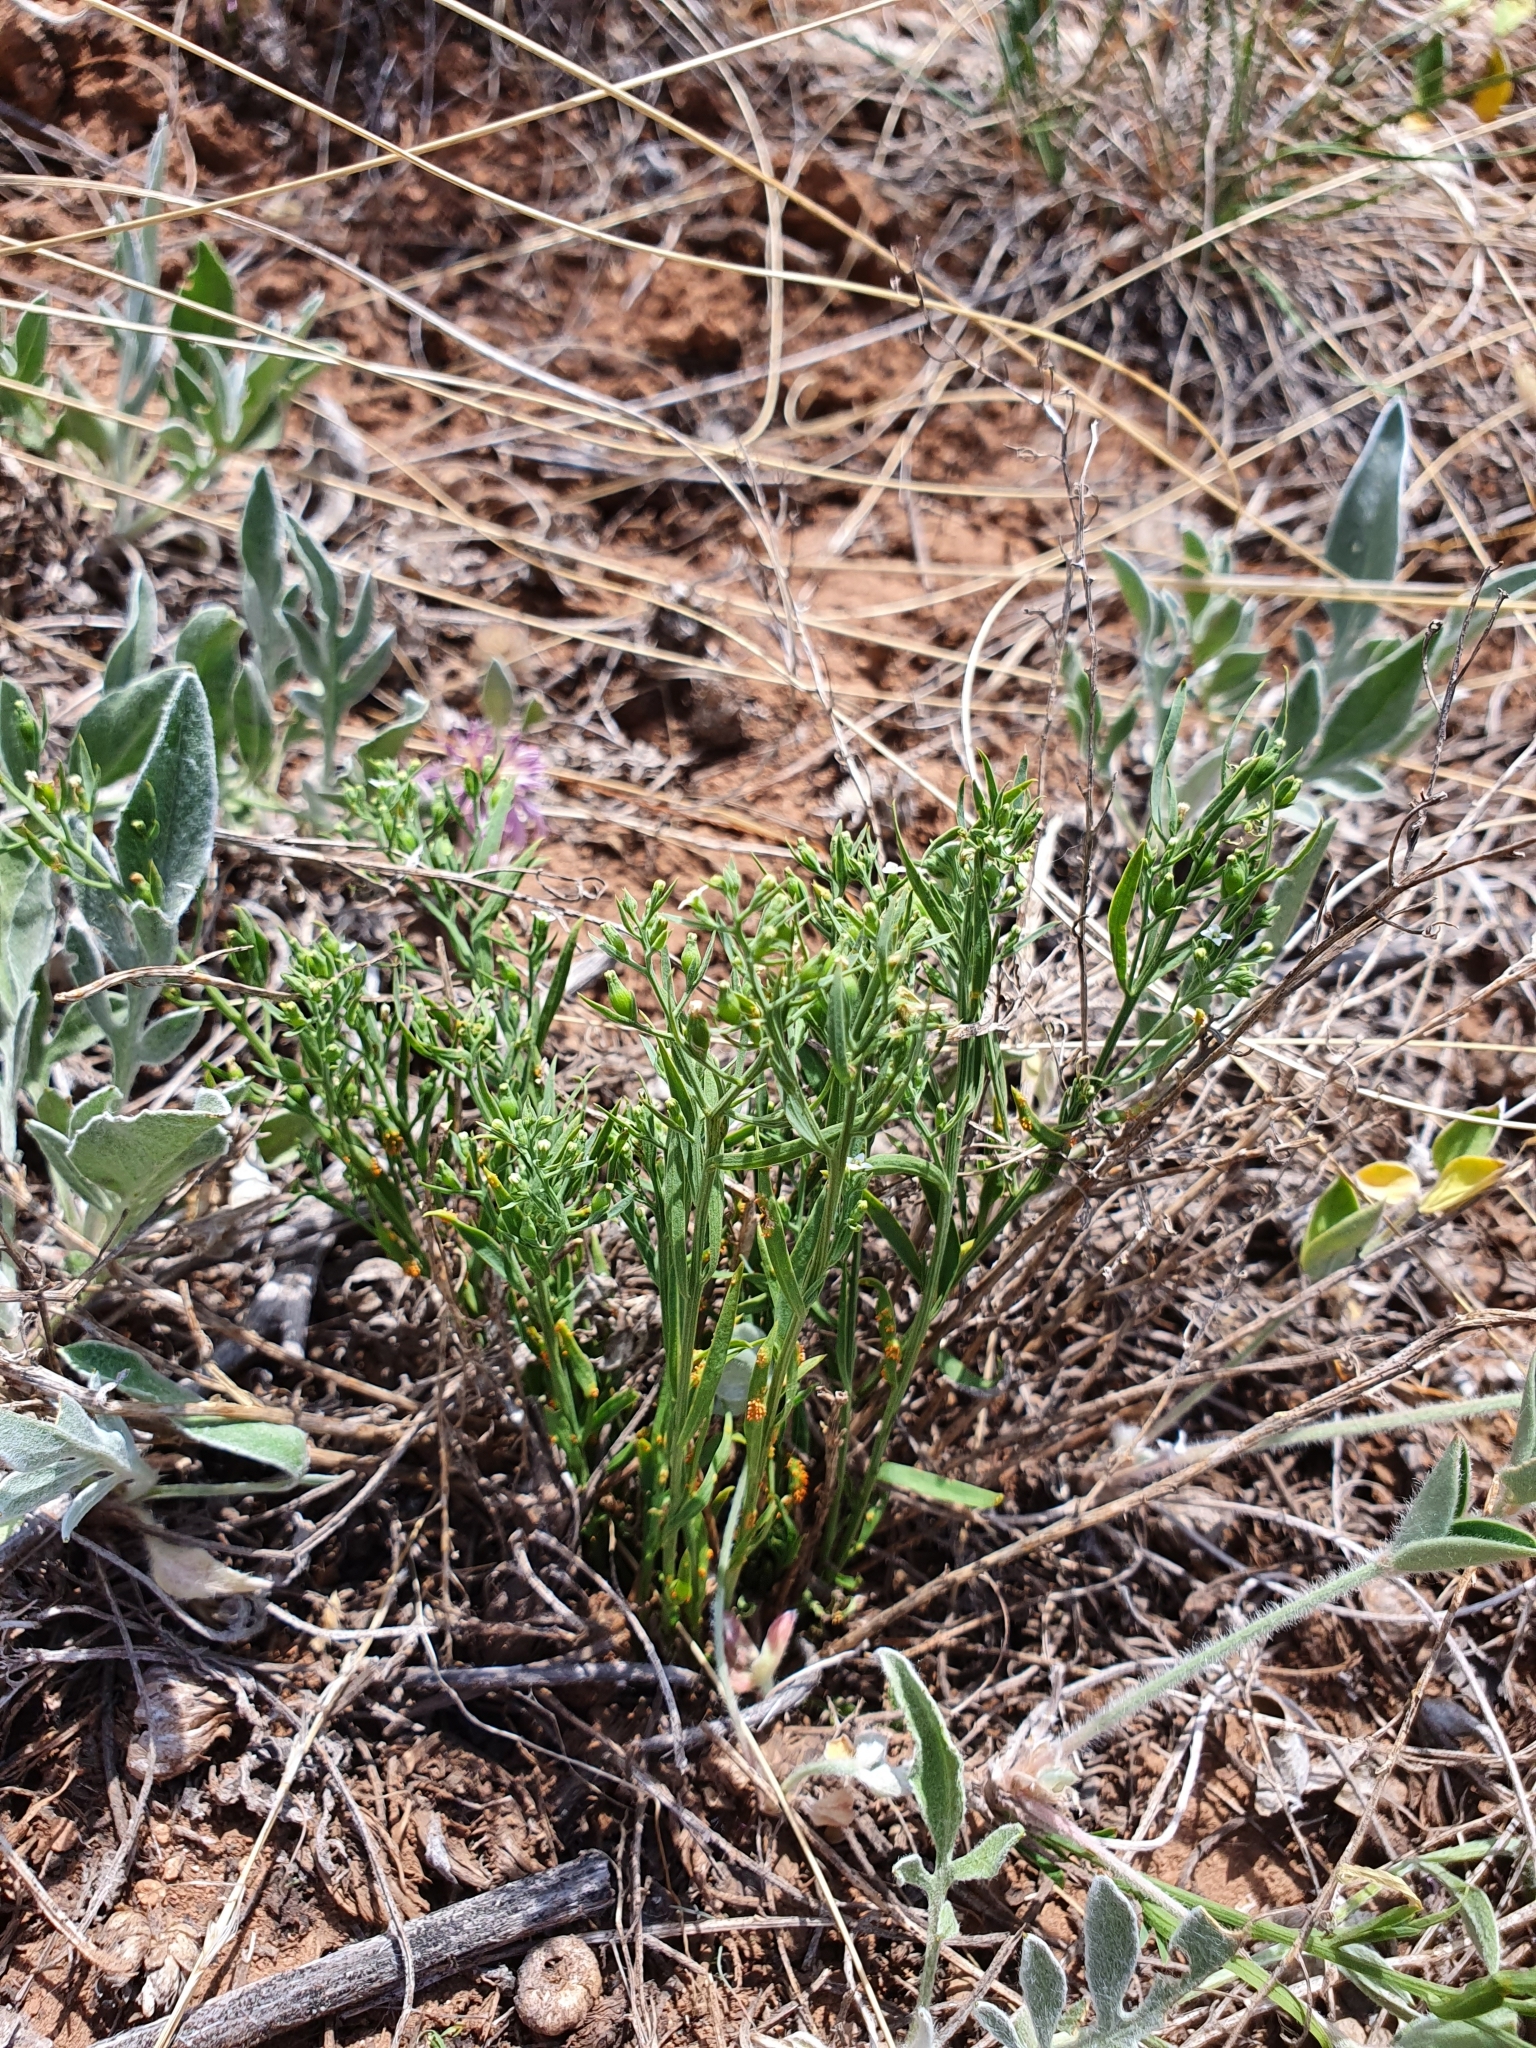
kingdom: Plantae
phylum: Tracheophyta
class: Magnoliopsida
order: Santalales
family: Thesiaceae
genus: Thesium
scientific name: Thesium ramosum
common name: Field thesium
